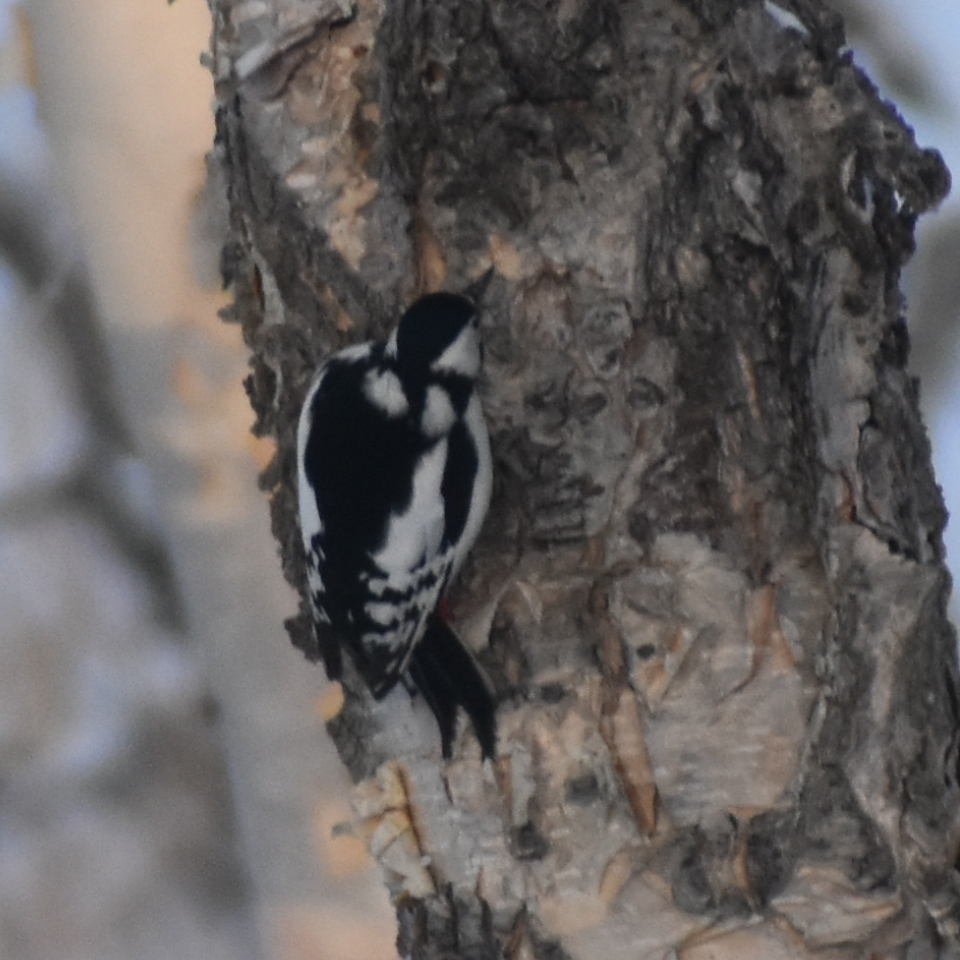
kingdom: Animalia
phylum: Chordata
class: Aves
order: Piciformes
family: Picidae
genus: Dendrocopos
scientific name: Dendrocopos major
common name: Great spotted woodpecker
